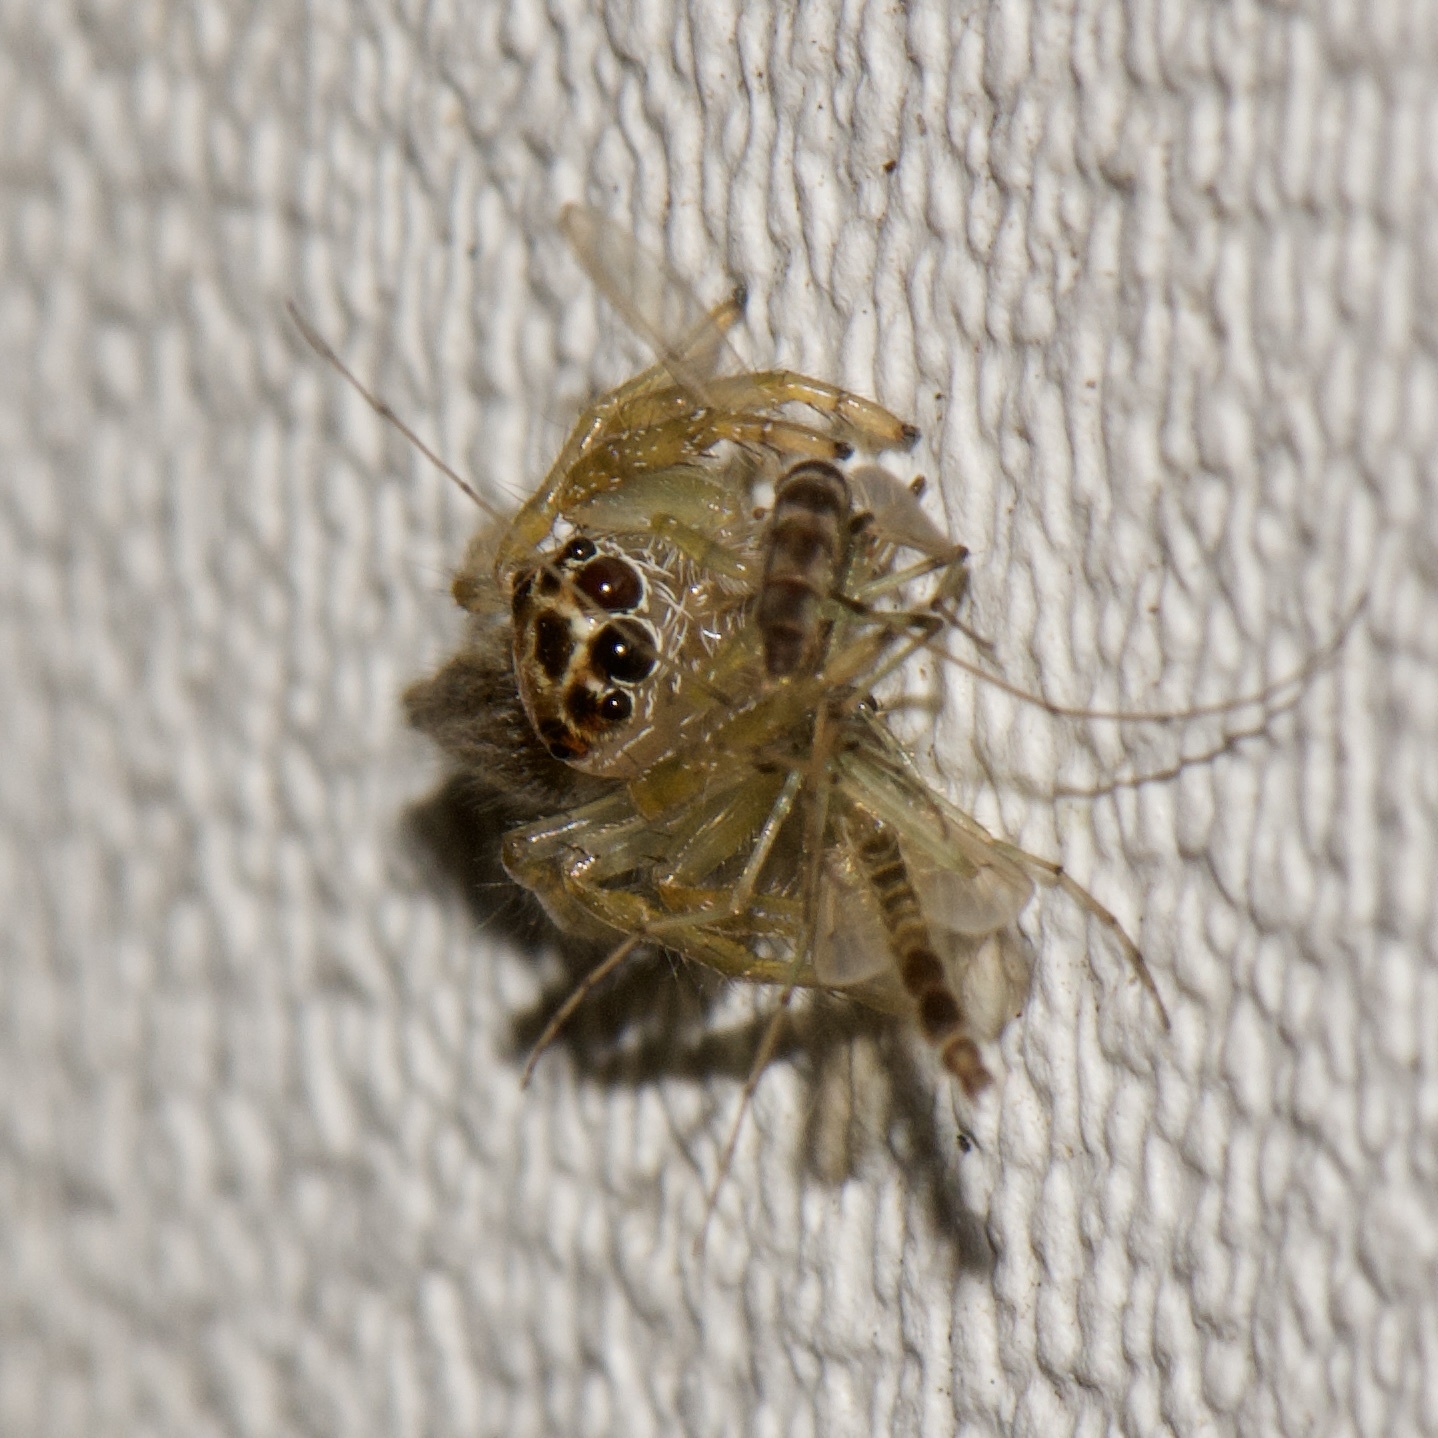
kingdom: Animalia
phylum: Arthropoda
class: Arachnida
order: Araneae
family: Salticidae
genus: Colonus
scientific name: Colonus sylvanus
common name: Jumping spiders
